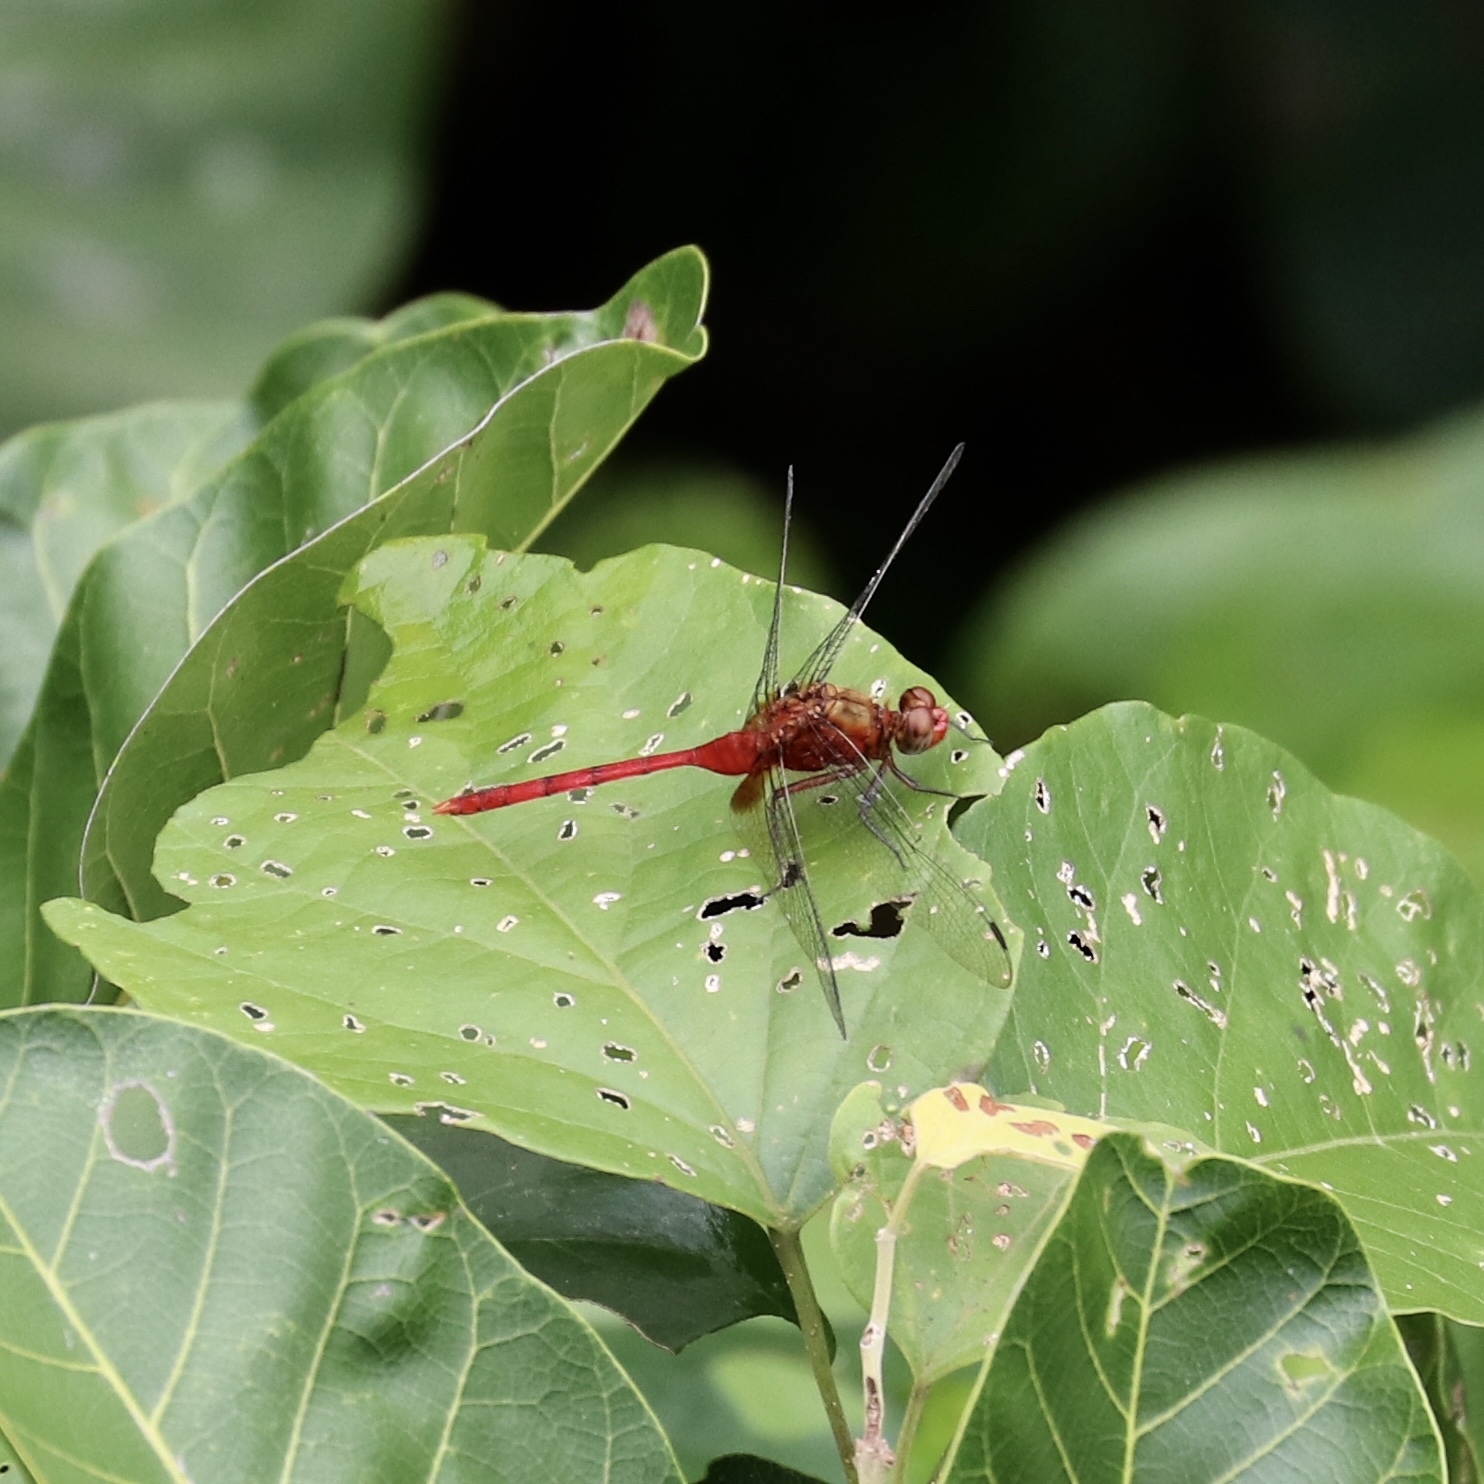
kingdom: Animalia
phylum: Arthropoda
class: Insecta
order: Odonata
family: Libellulidae
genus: Erythemis
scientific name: Erythemis carmelita
